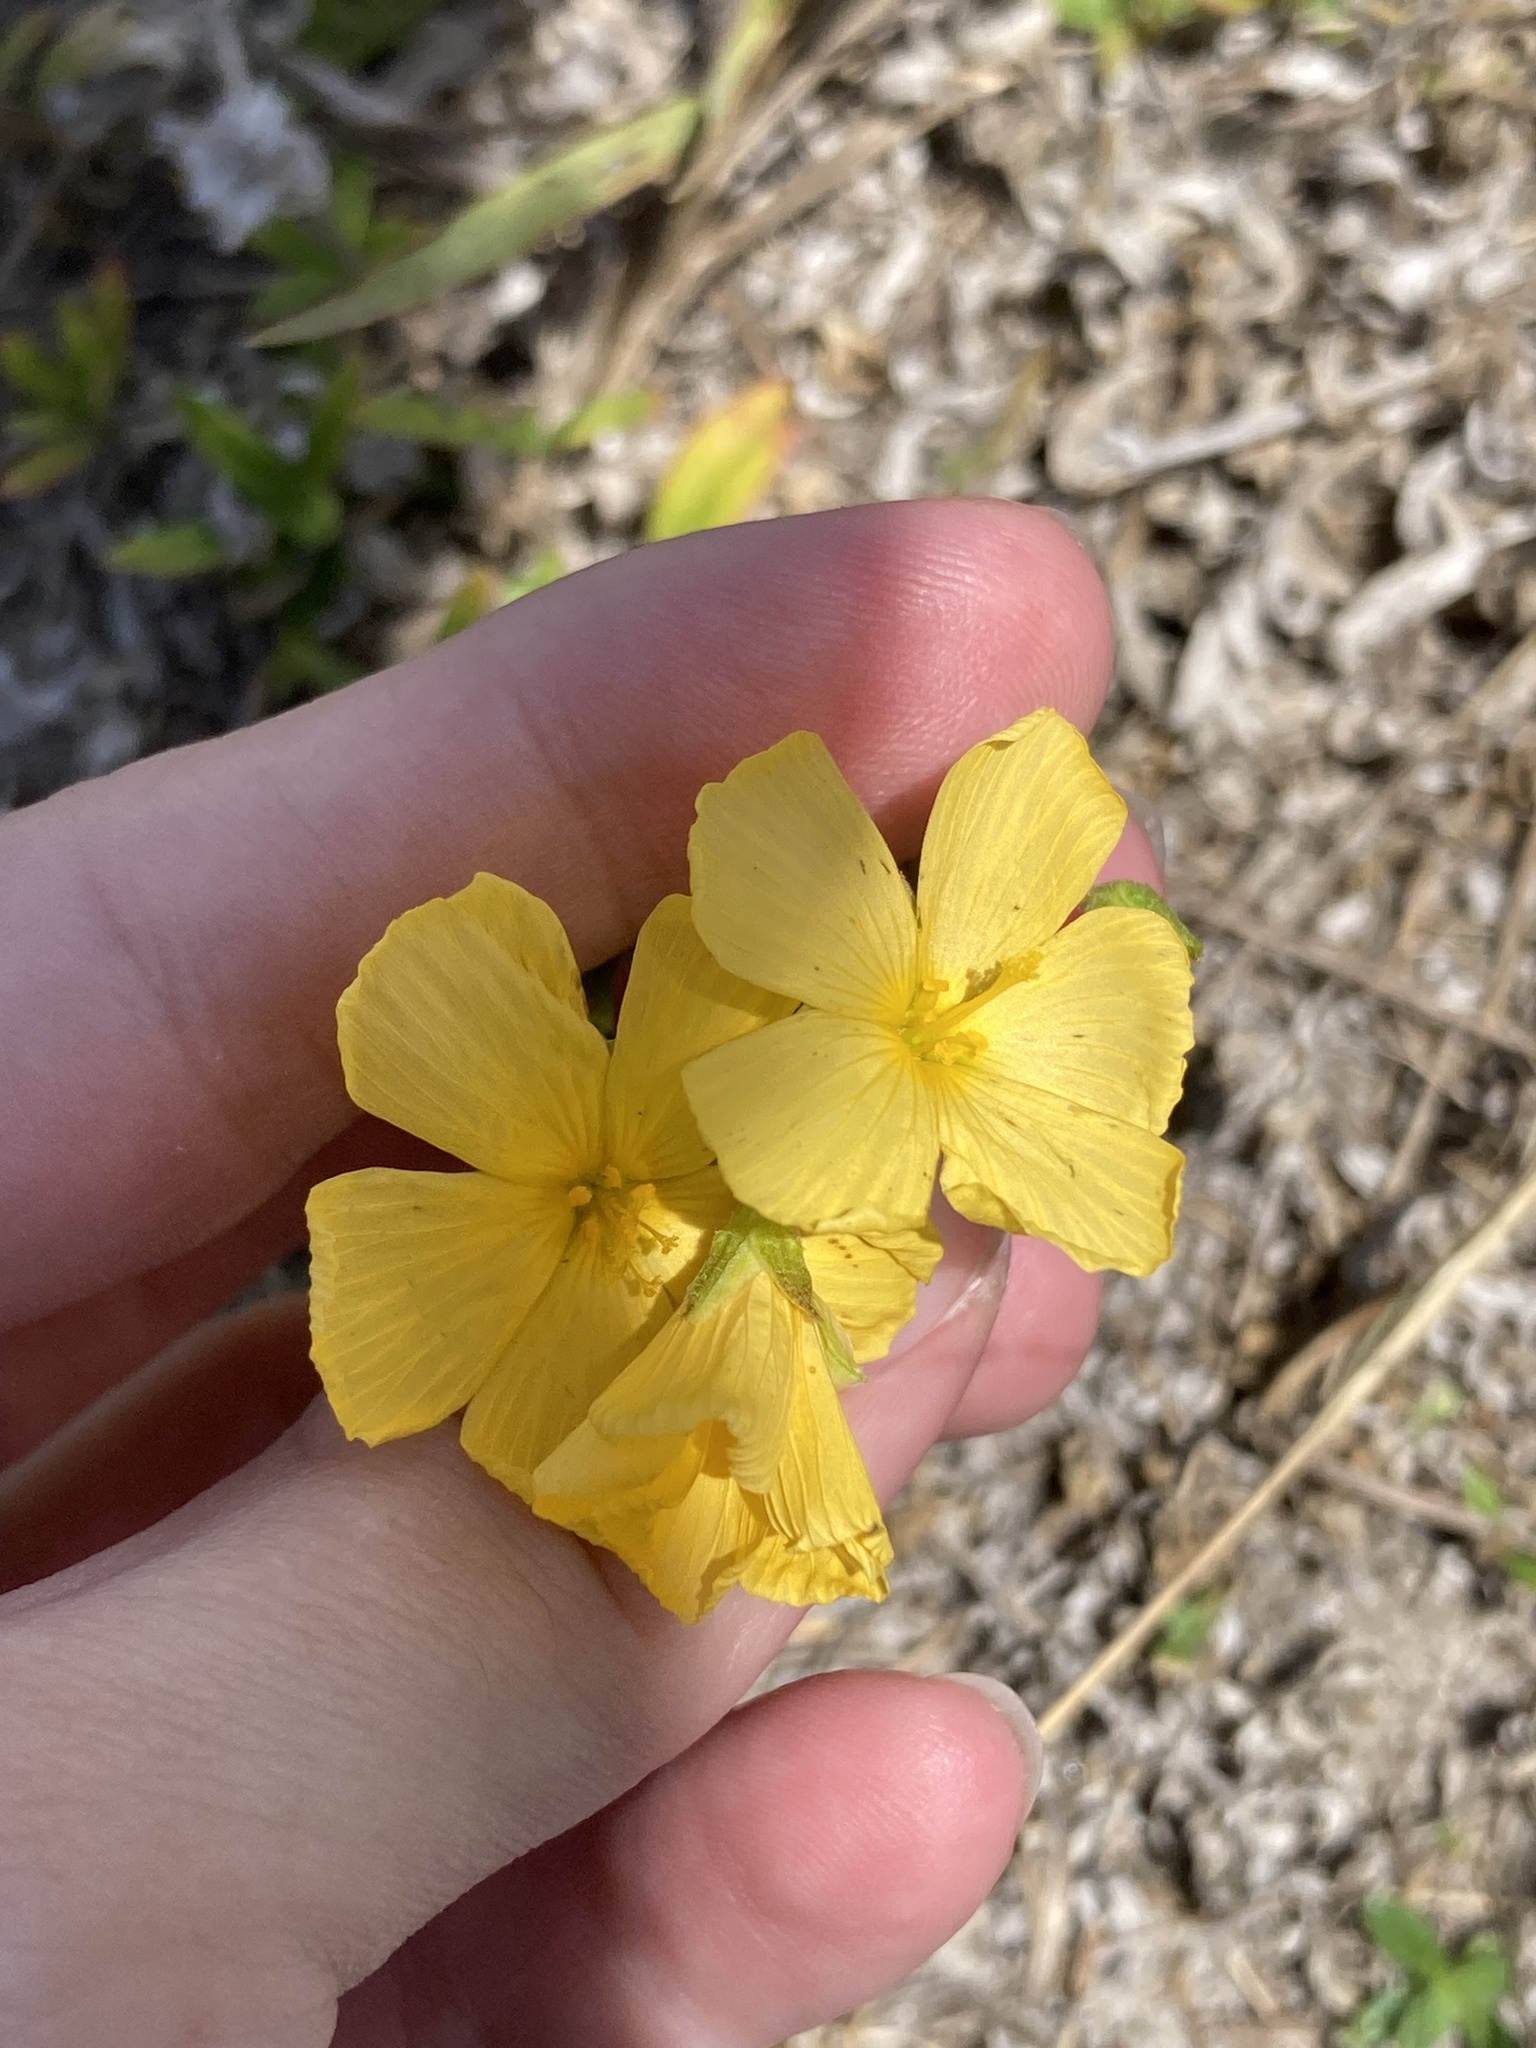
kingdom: Plantae
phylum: Tracheophyta
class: Magnoliopsida
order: Malpighiales
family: Turneraceae
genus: Piriqueta
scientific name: Piriqueta cistoides
